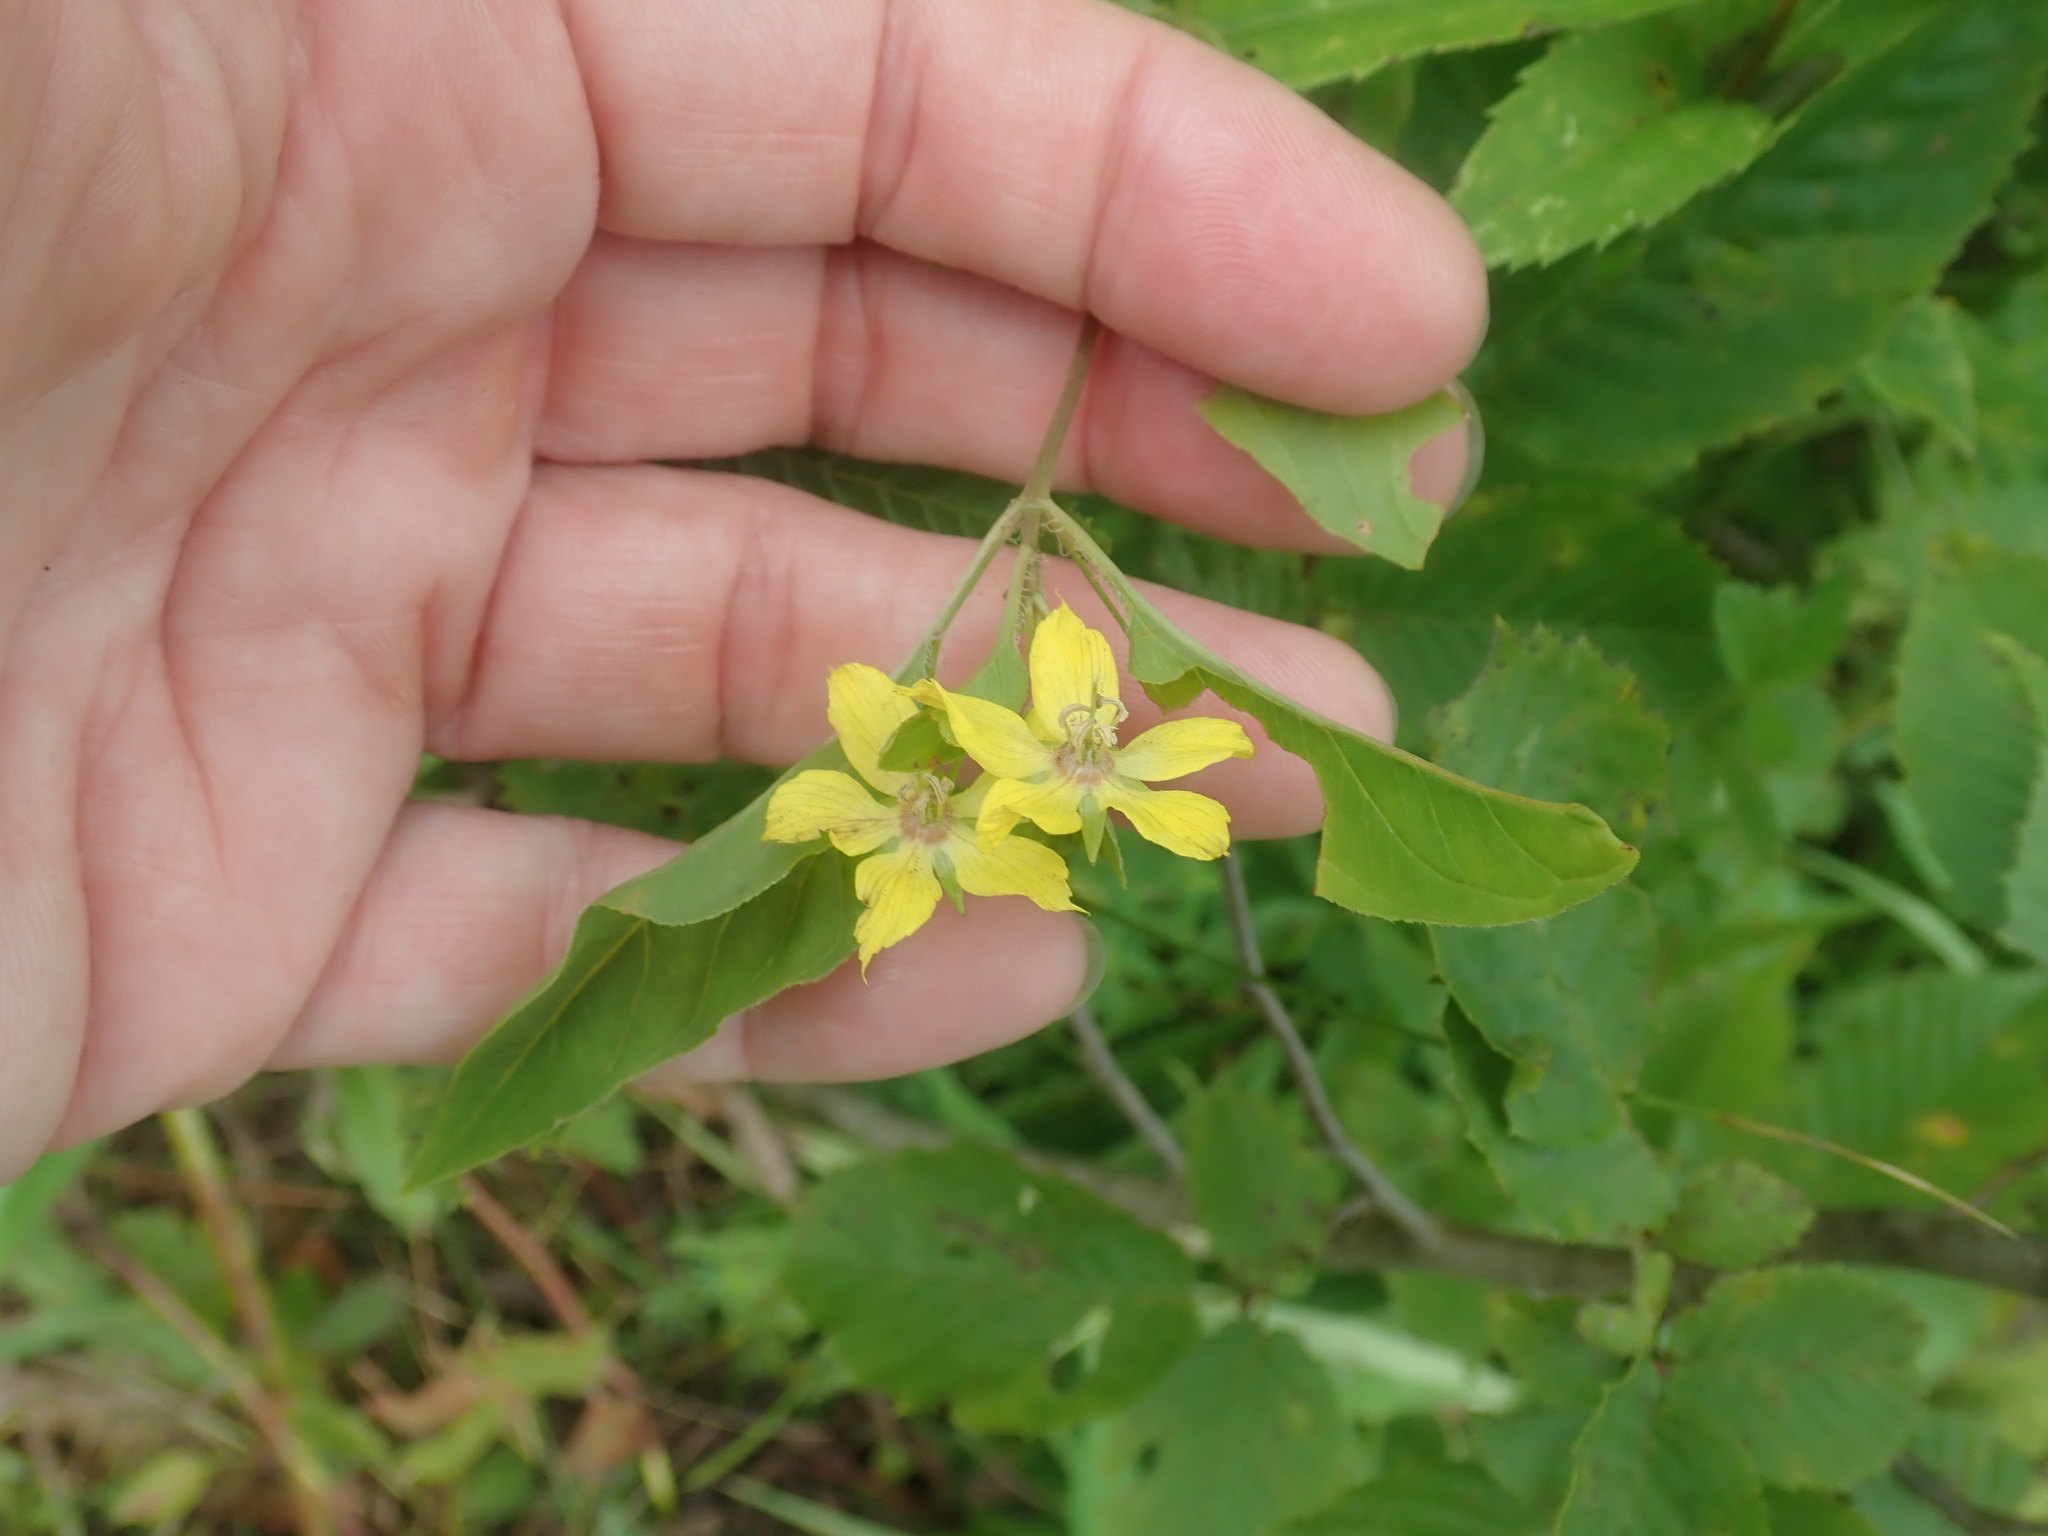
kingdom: Plantae
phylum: Tracheophyta
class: Magnoliopsida
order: Ericales
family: Primulaceae
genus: Lysimachia
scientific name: Lysimachia ciliata
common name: Fringed loosestrife
